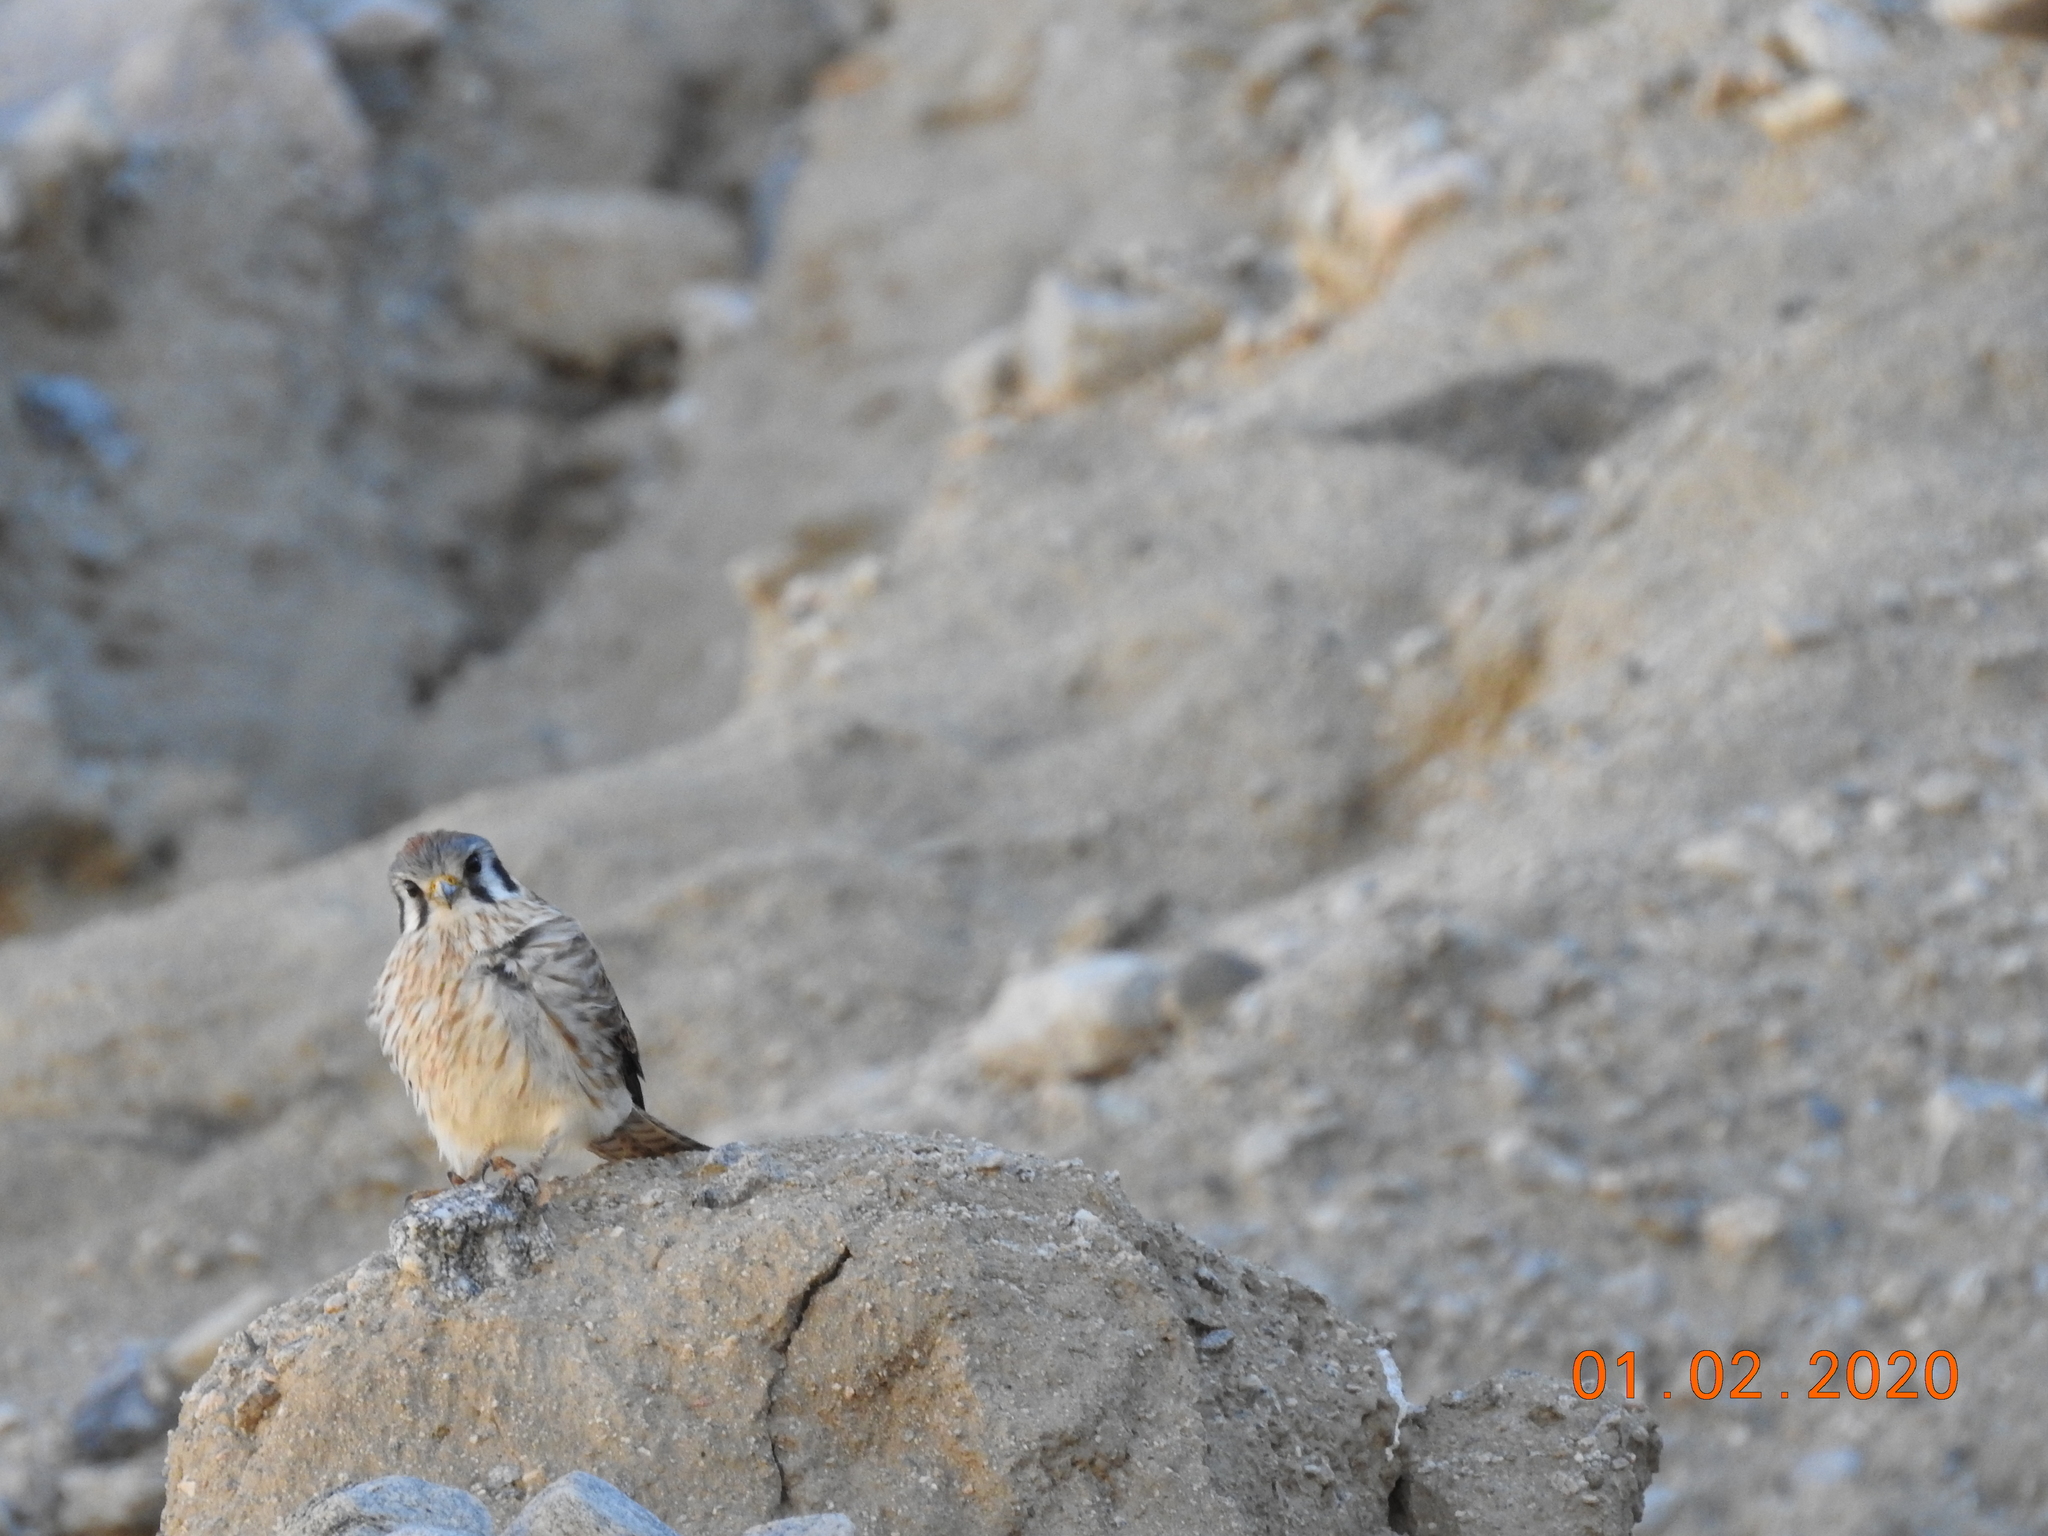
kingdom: Animalia
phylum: Chordata
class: Aves
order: Falconiformes
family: Falconidae
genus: Falco
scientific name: Falco sparverius
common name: American kestrel
